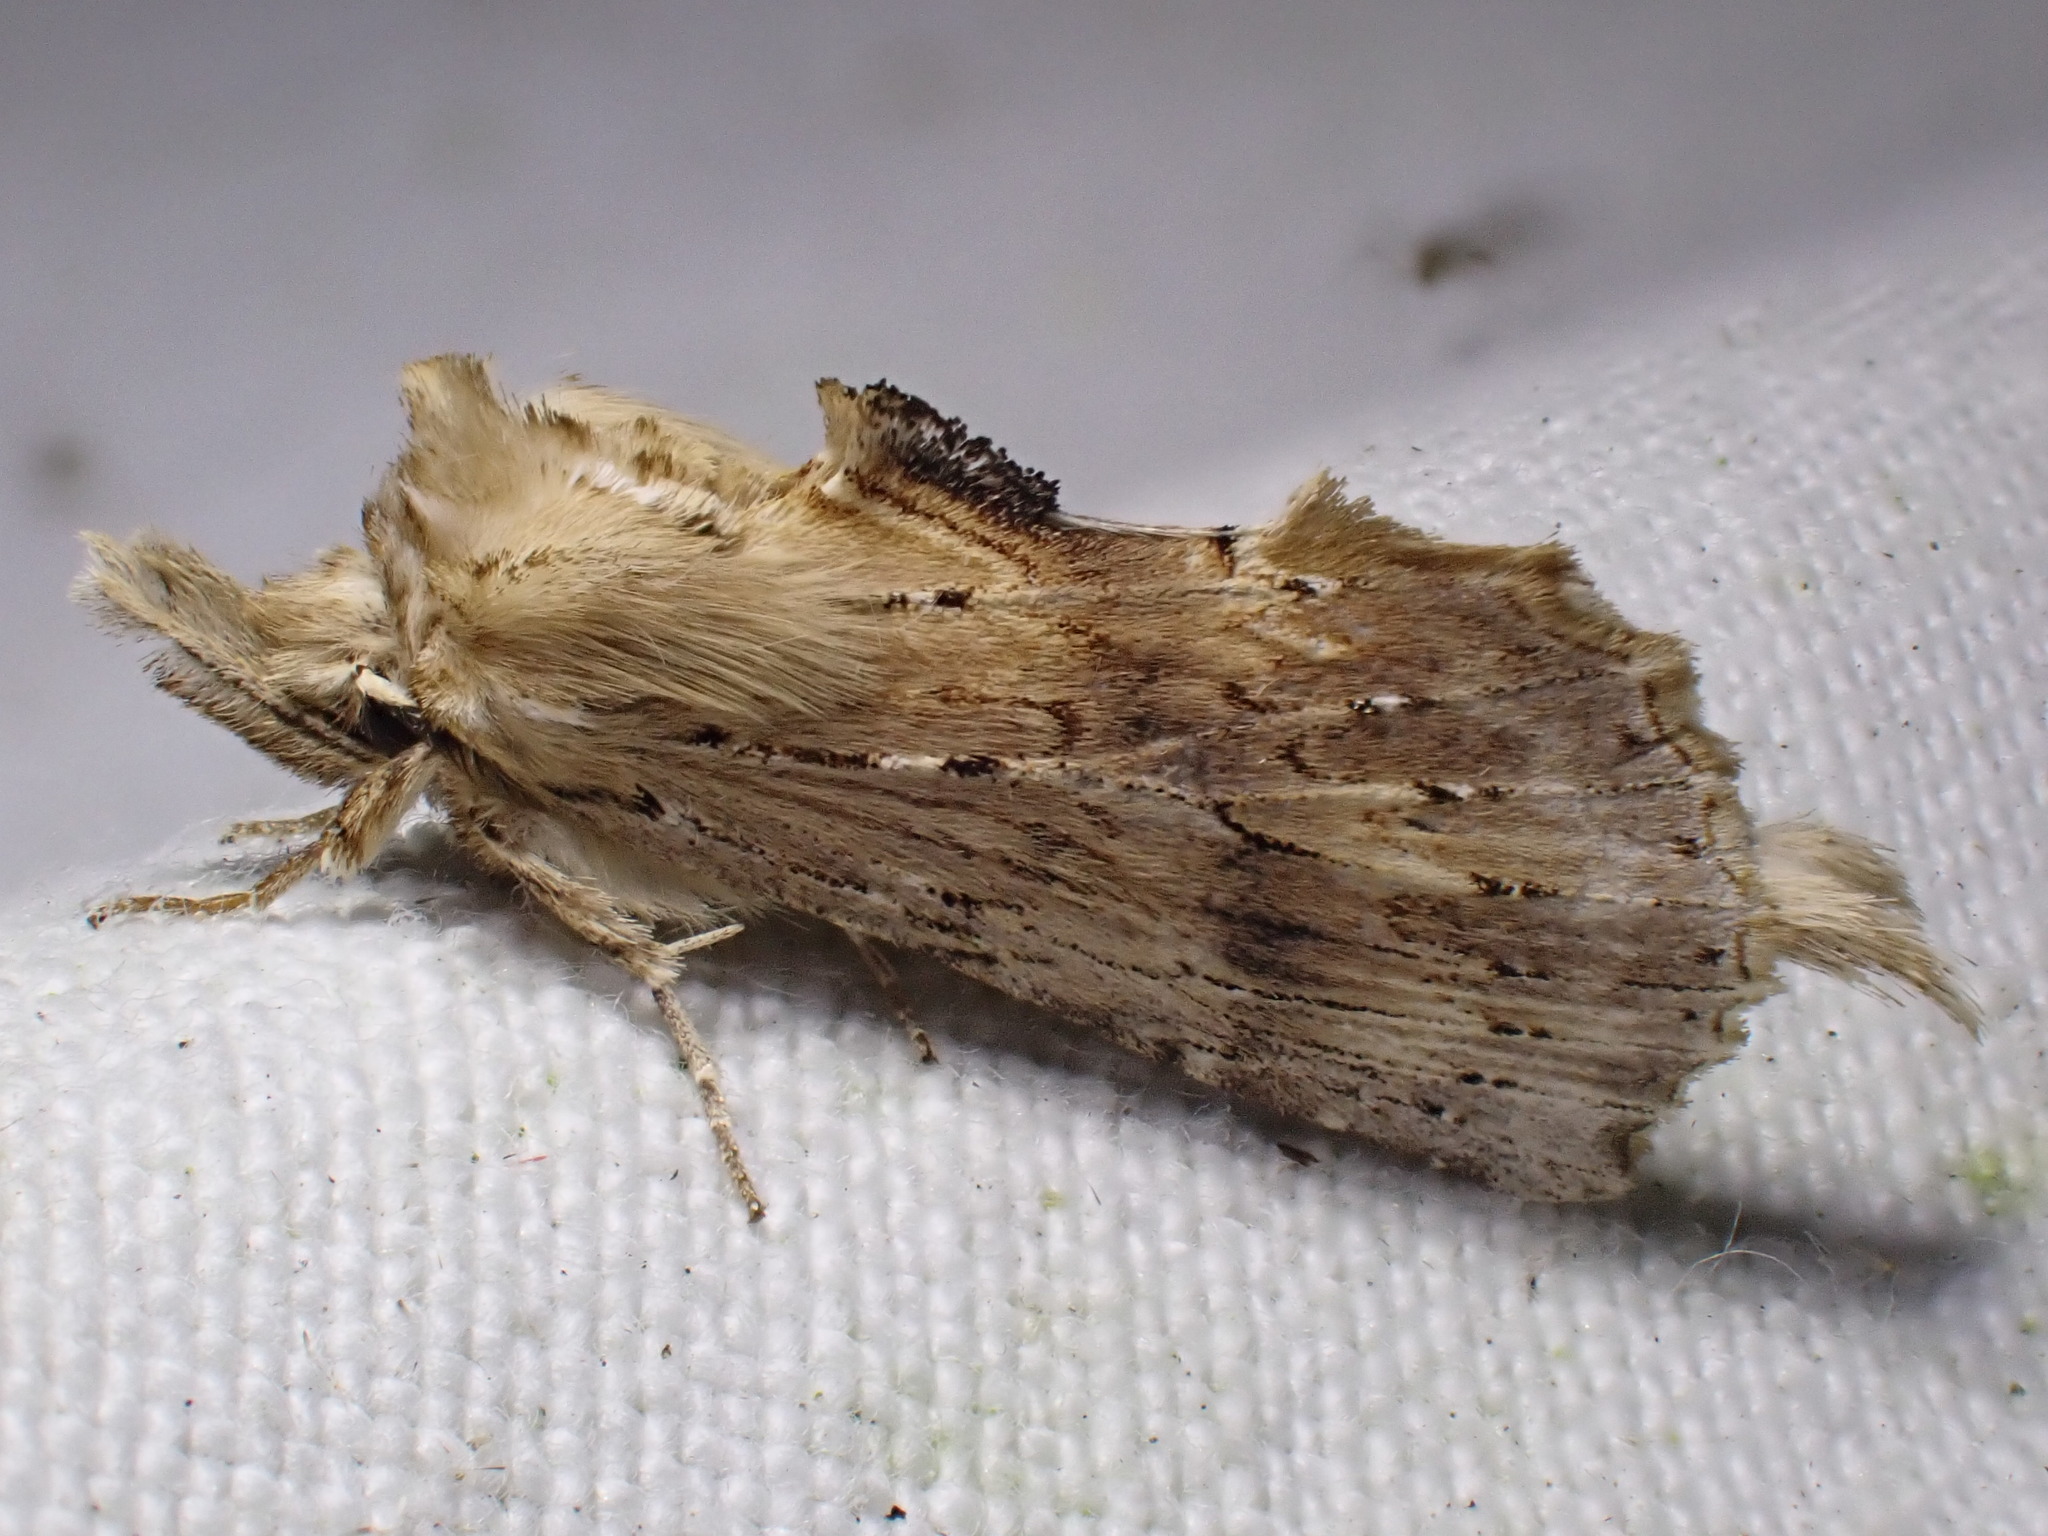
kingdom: Animalia
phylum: Arthropoda
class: Insecta
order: Lepidoptera
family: Notodontidae
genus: Pterostoma
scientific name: Pterostoma palpina
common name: Pale prominent
